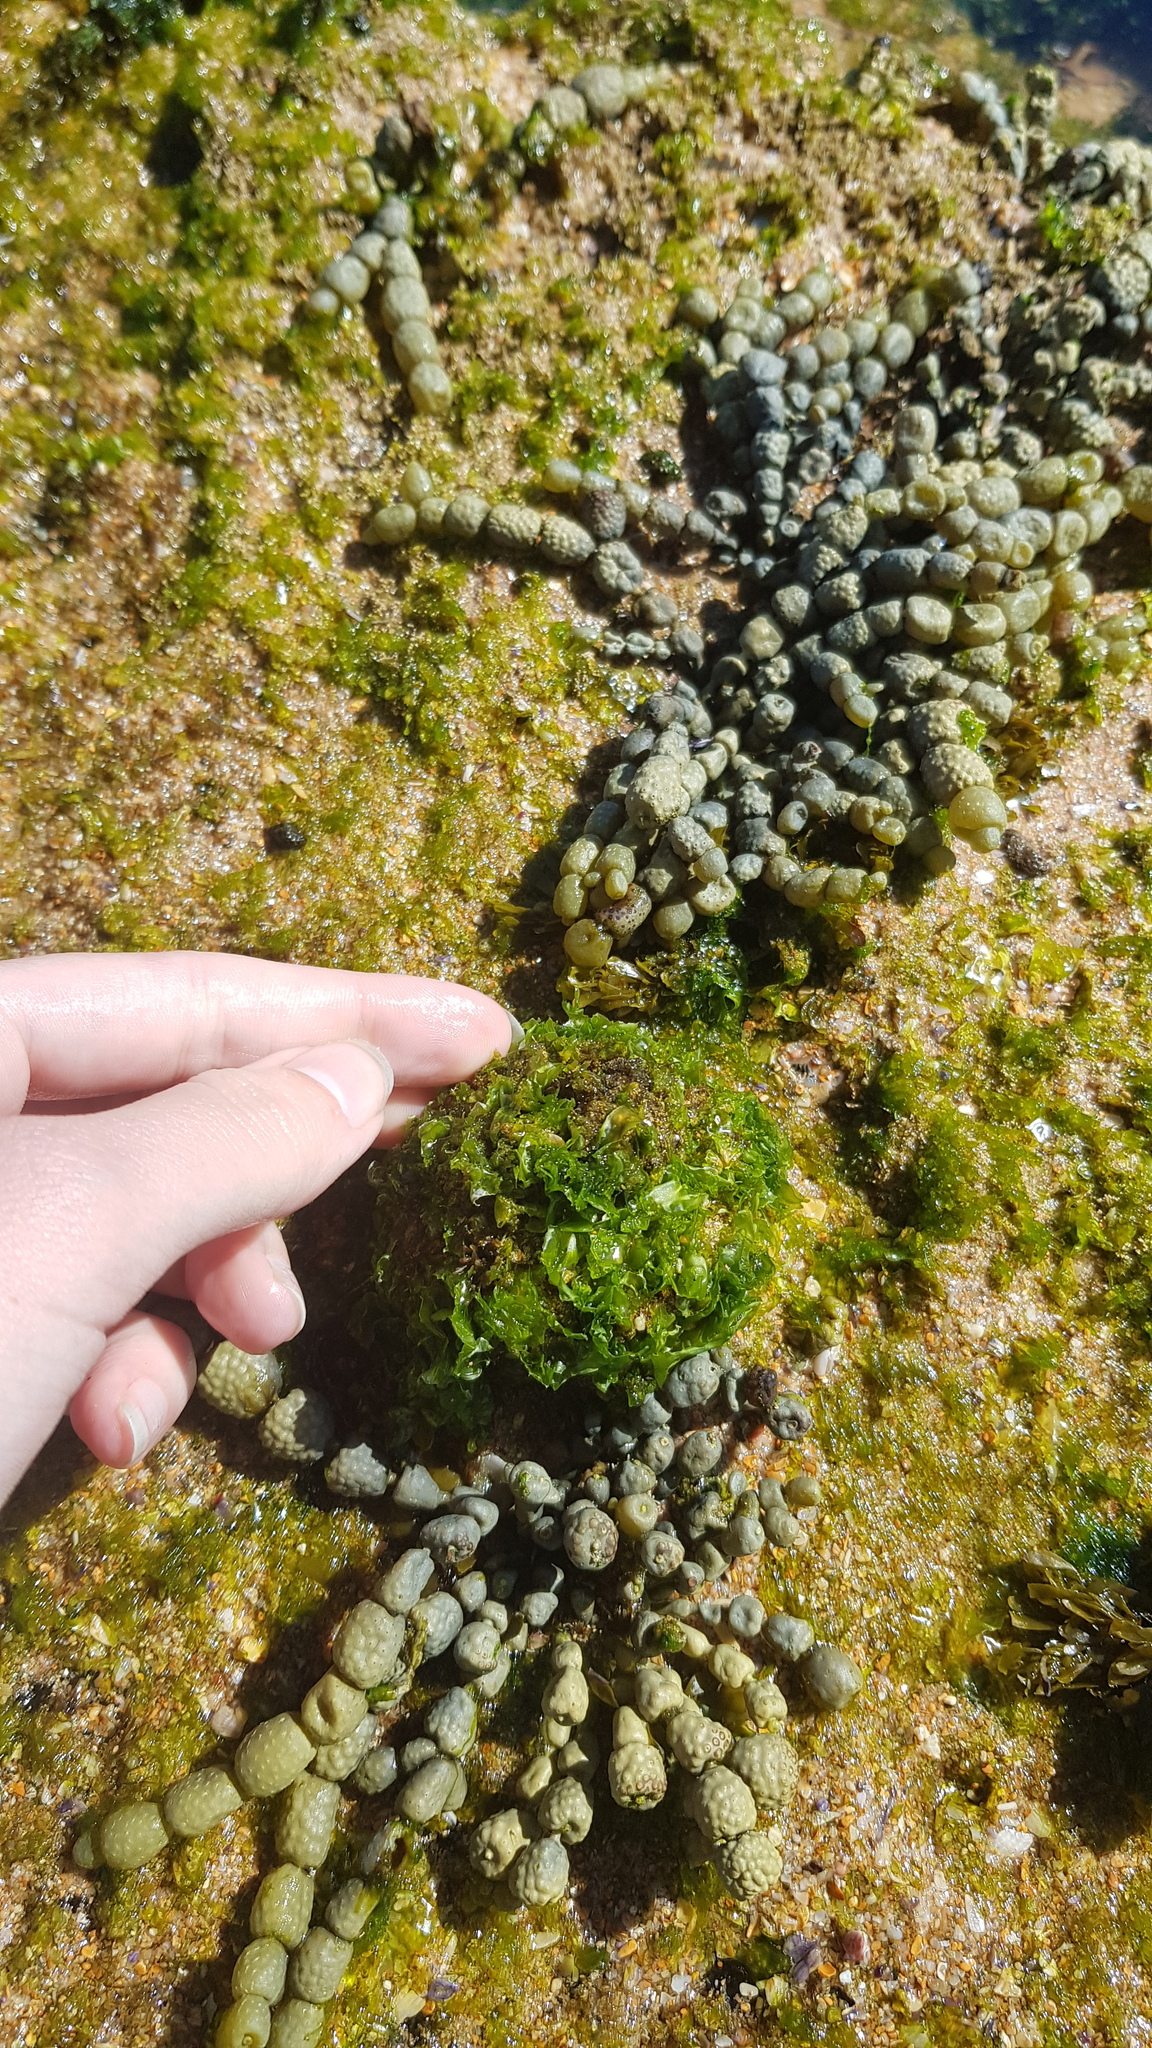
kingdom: Animalia
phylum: Chordata
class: Ascidiacea
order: Stolidobranchia
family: Pyuridae
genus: Pyura
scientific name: Pyura praeputialis
